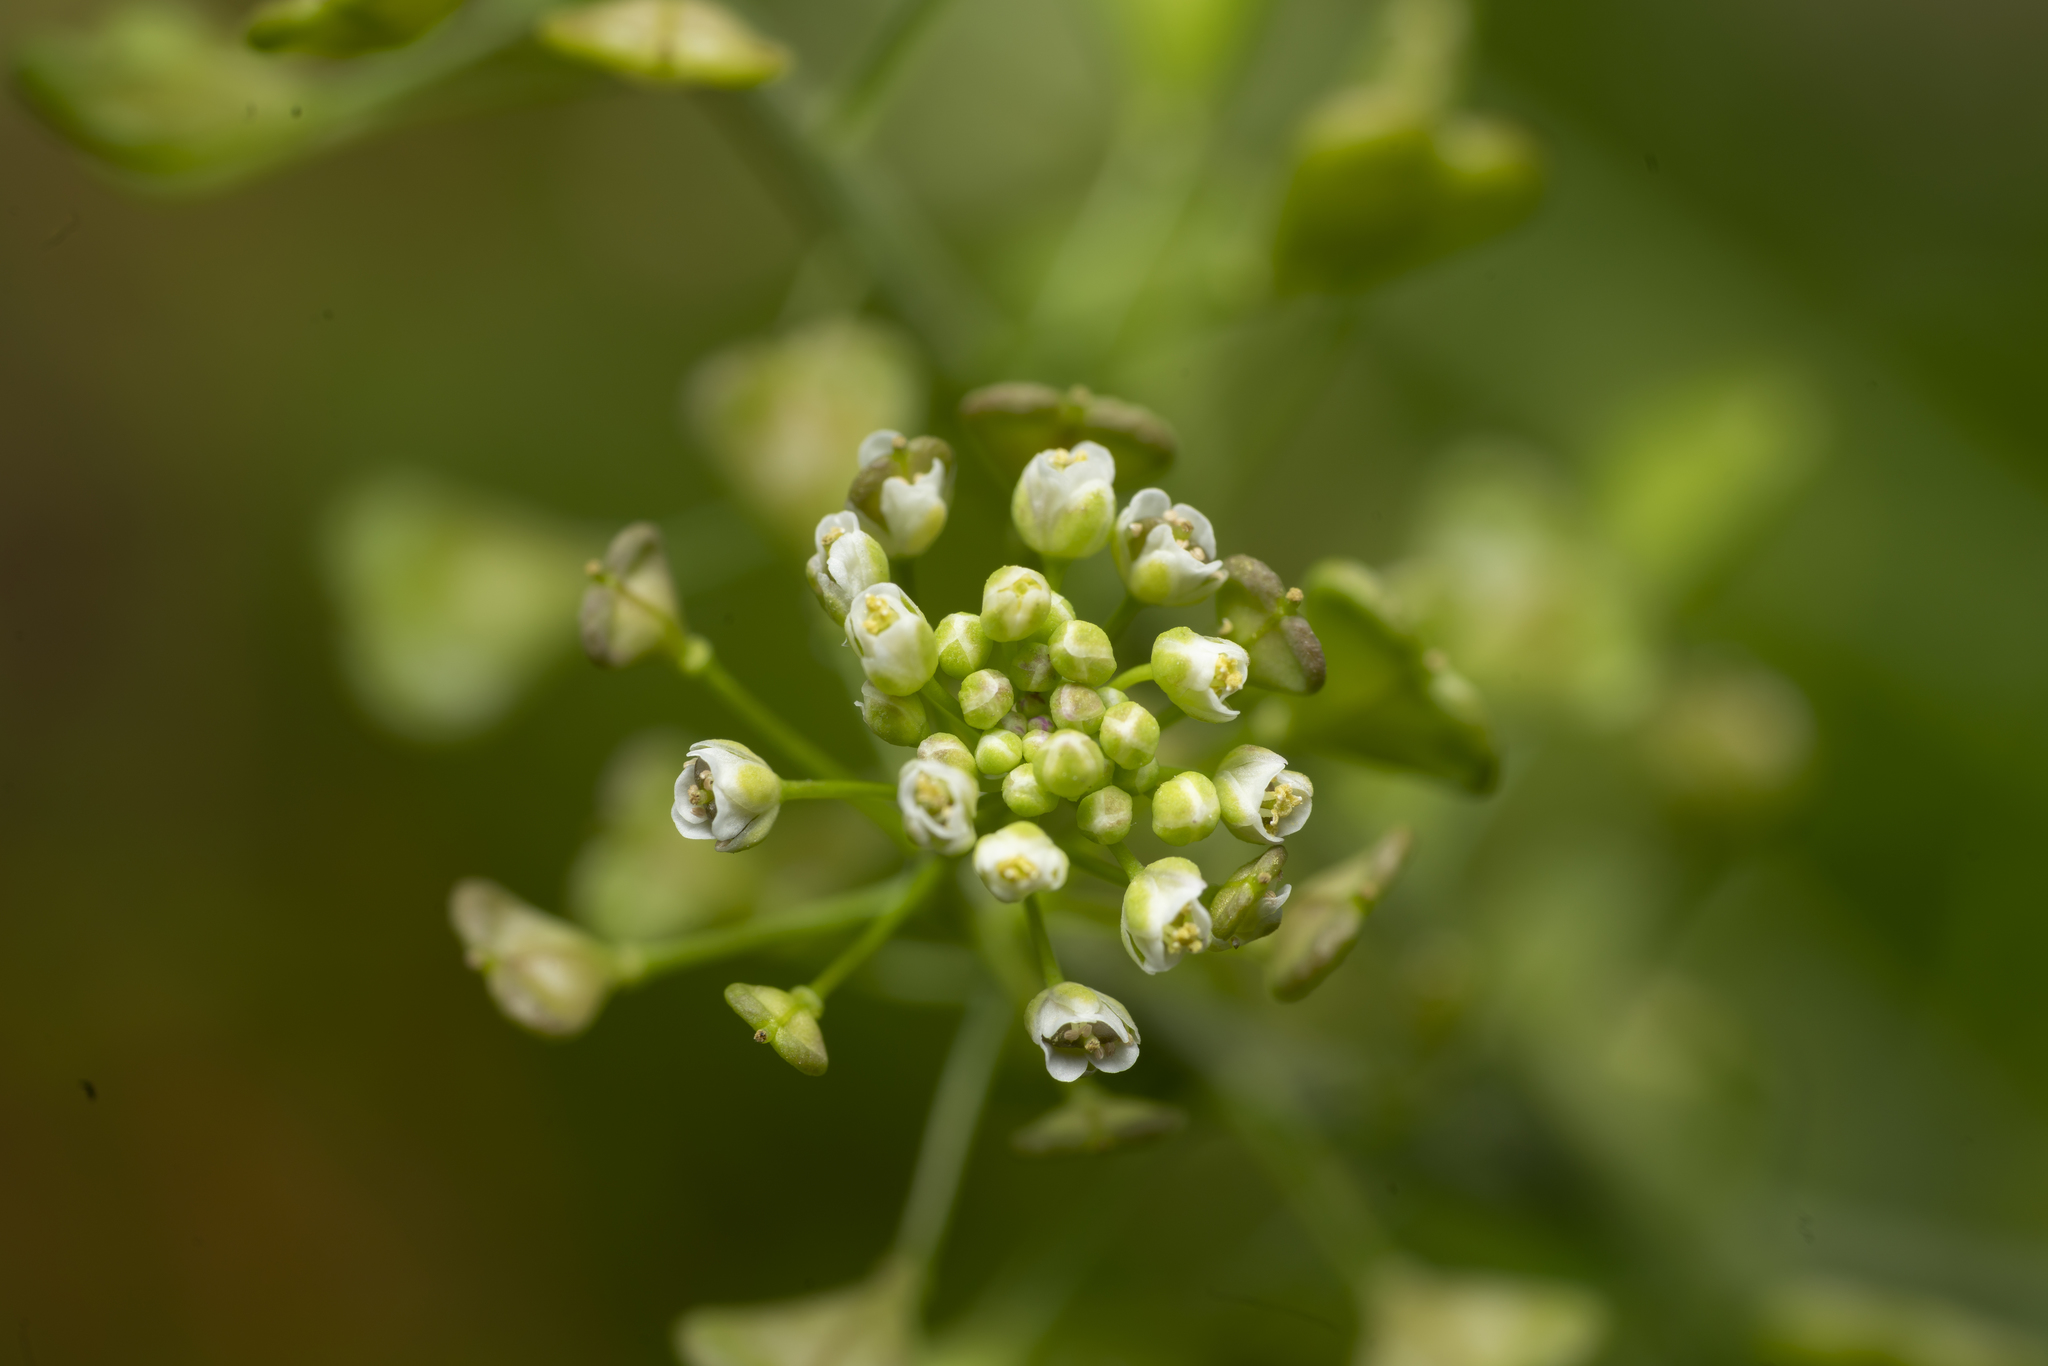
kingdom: Plantae
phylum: Tracheophyta
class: Magnoliopsida
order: Brassicales
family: Brassicaceae
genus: Capsella
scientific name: Capsella rubella
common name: Pink shepherd's-purse
